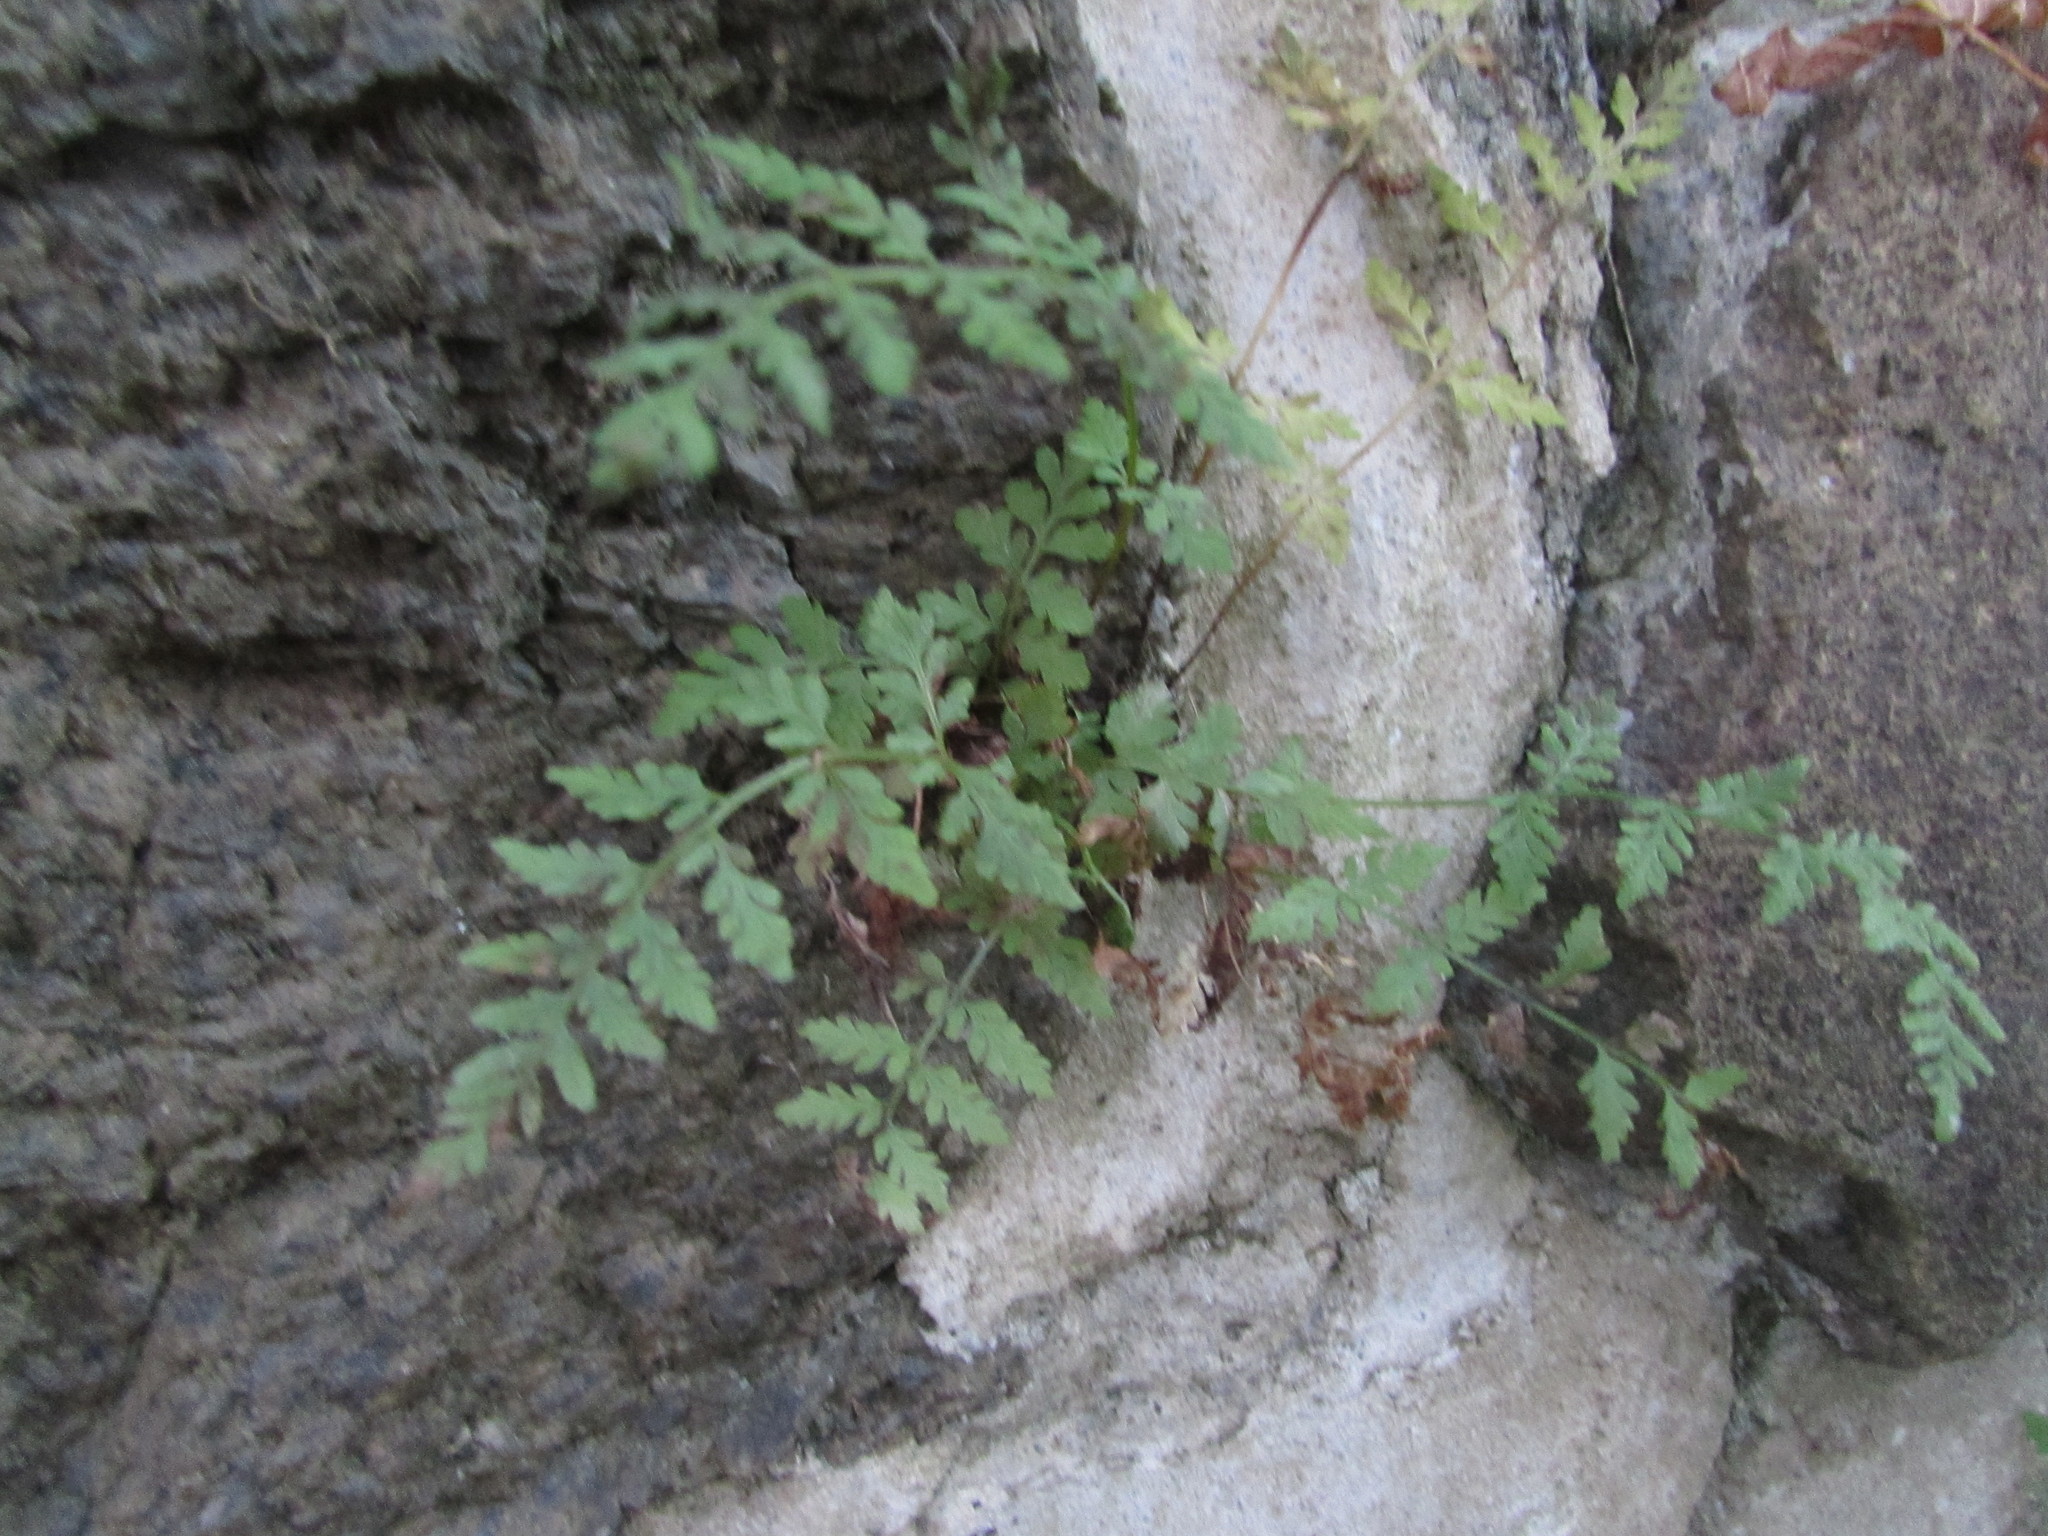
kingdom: Plantae
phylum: Tracheophyta
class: Polypodiopsida
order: Polypodiales
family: Cystopteridaceae
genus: Cystopteris
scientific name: Cystopteris tenuis
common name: Mackay's brittle fern
